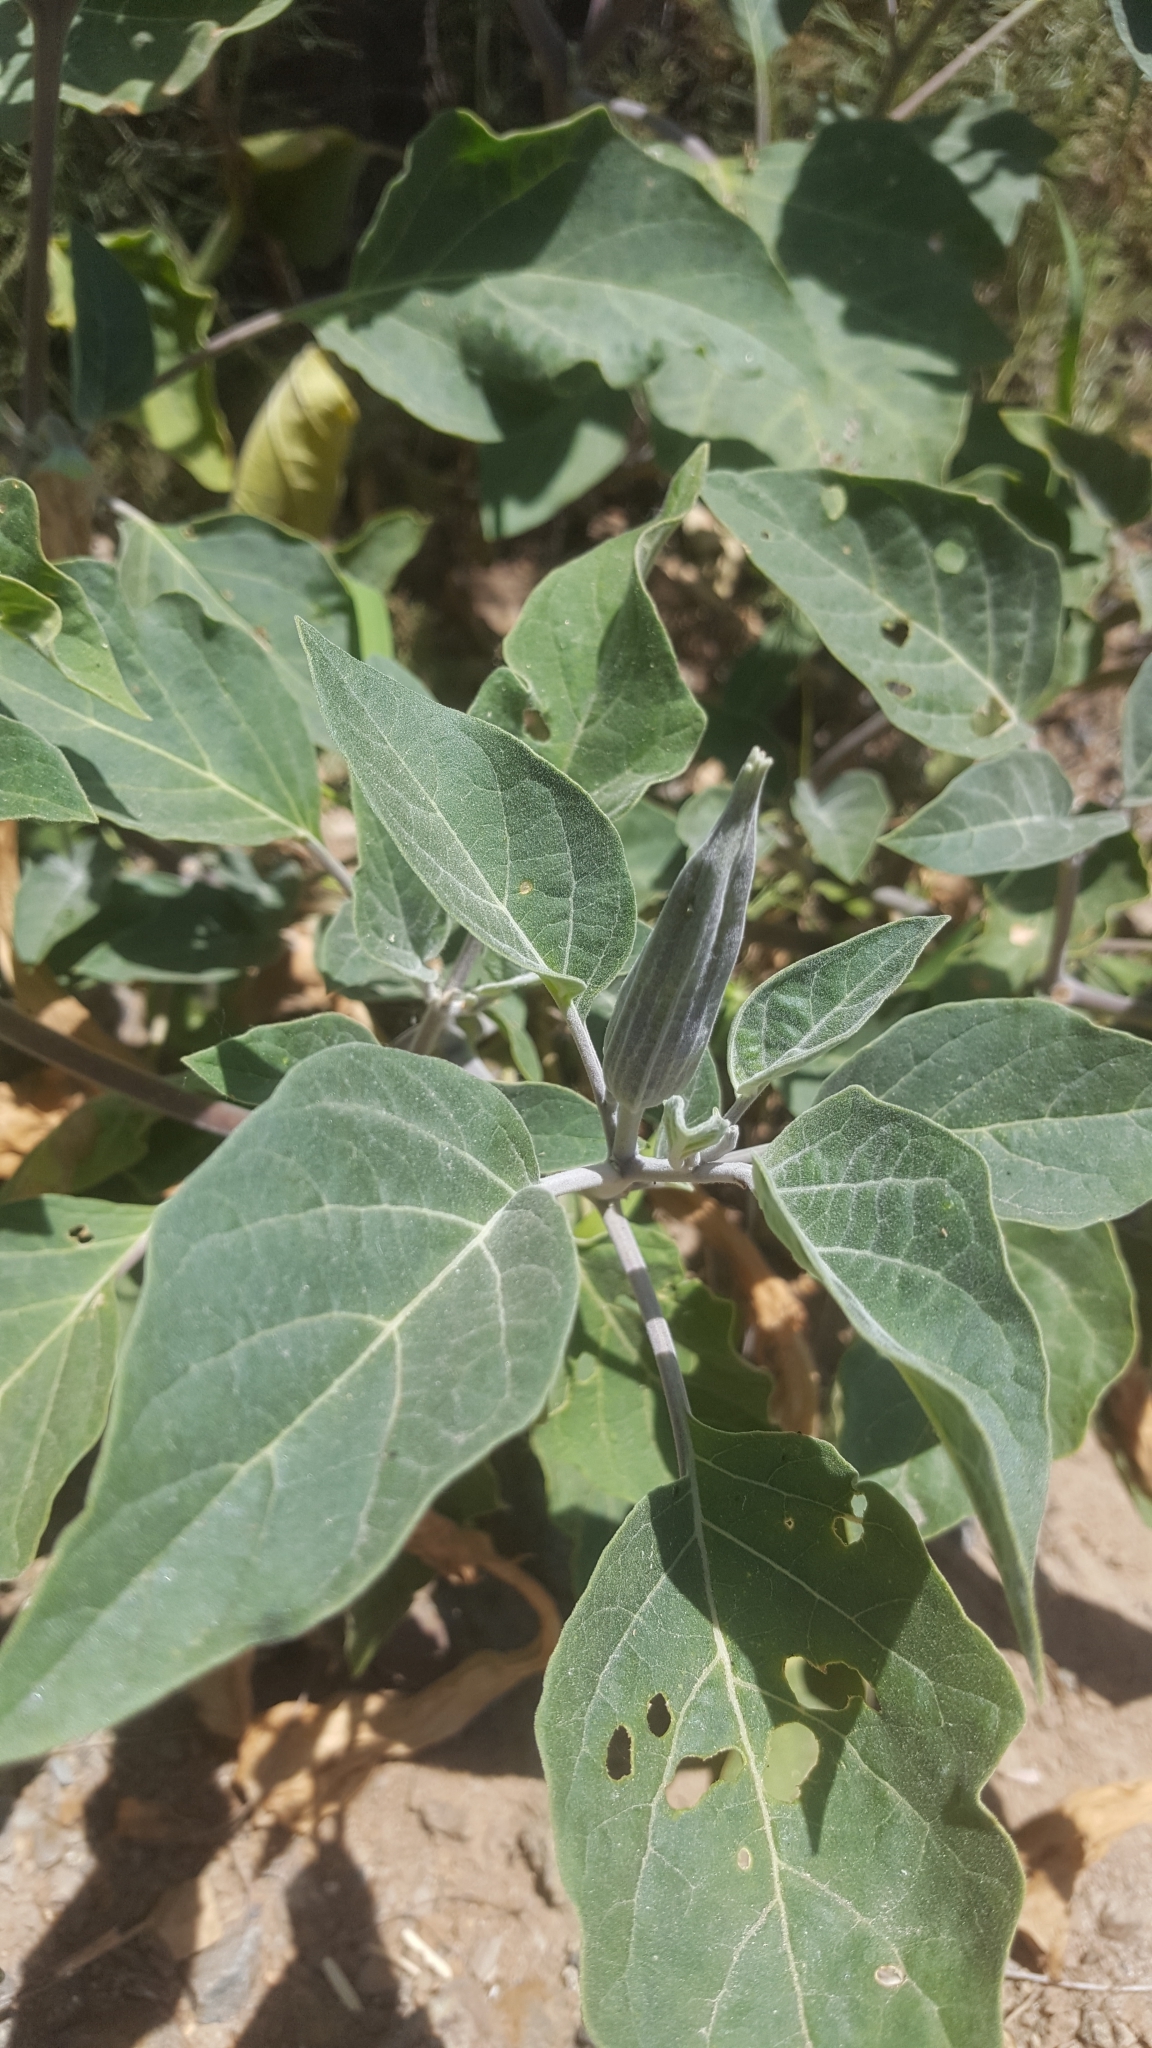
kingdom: Plantae
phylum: Tracheophyta
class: Magnoliopsida
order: Solanales
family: Solanaceae
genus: Datura
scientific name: Datura wrightii
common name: Sacred thorn-apple
